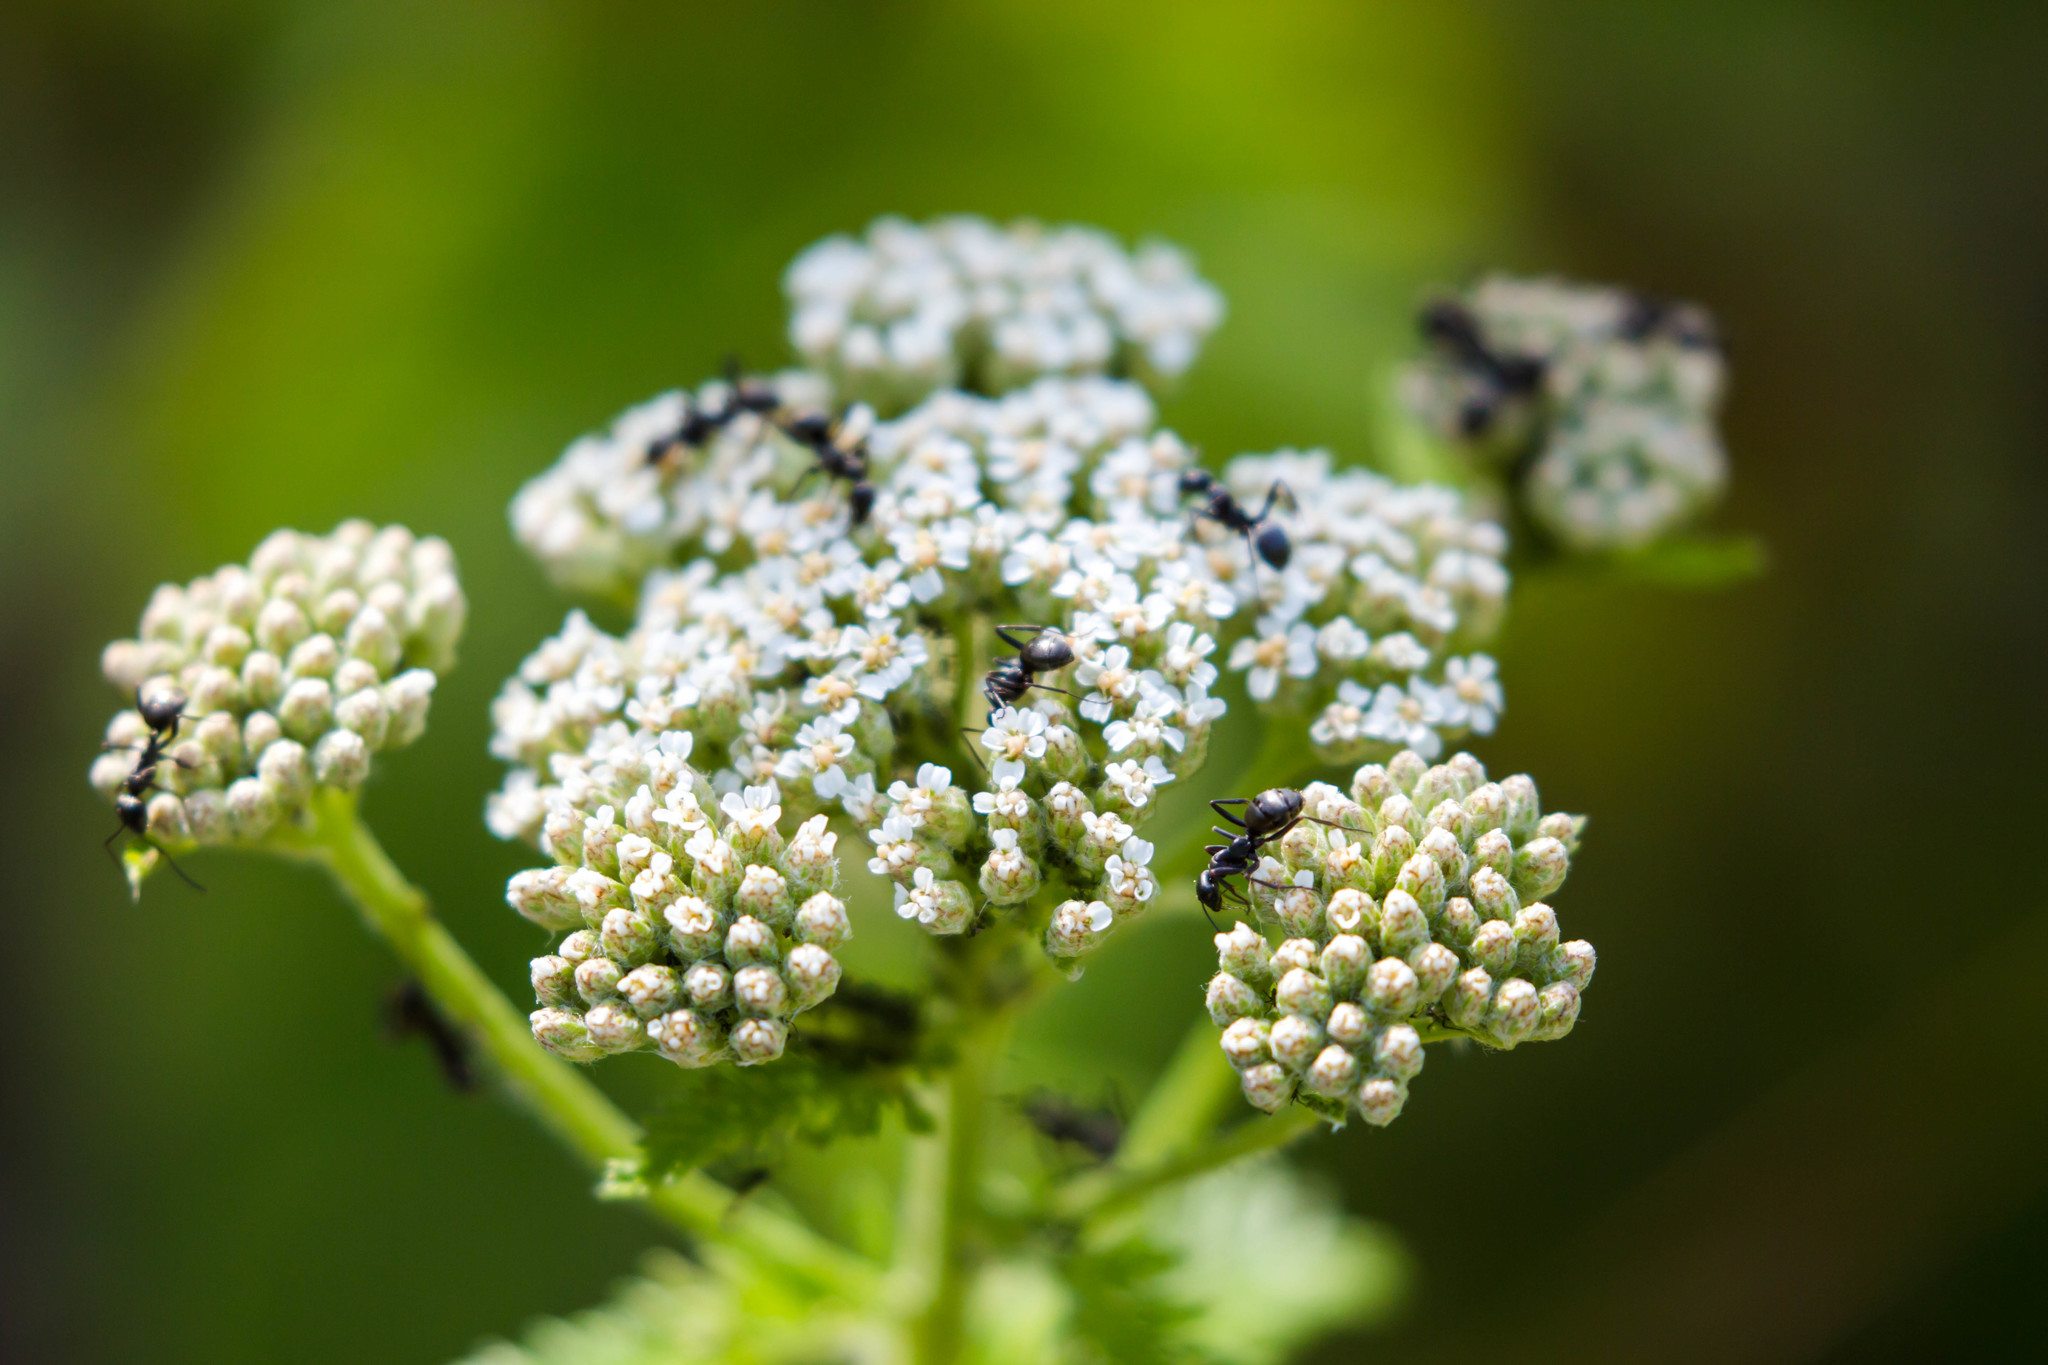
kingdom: Animalia
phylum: Arthropoda
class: Insecta
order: Hymenoptera
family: Formicidae
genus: Camponotus
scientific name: Camponotus pennsylvanicus
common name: Black carpenter ant
